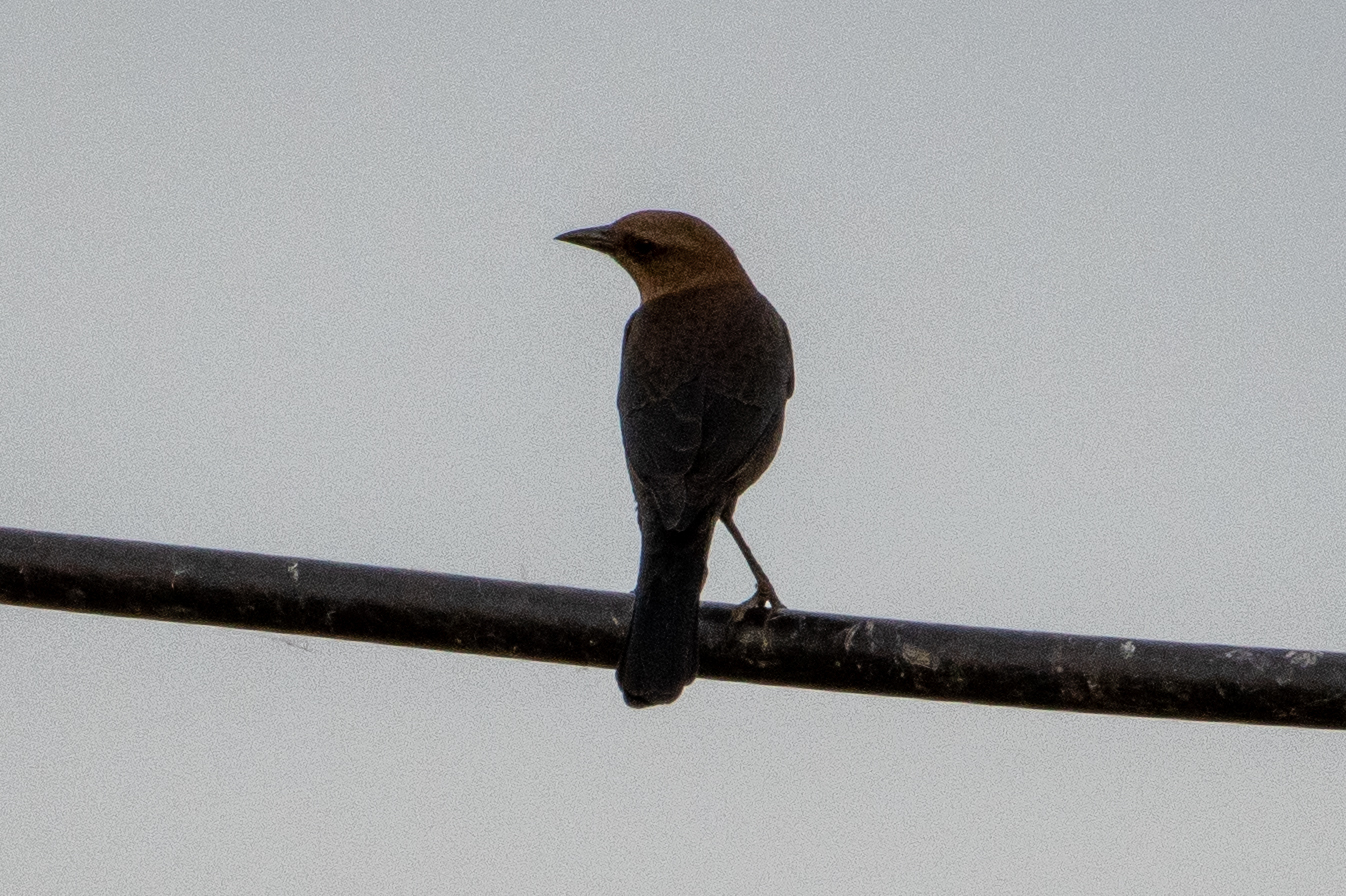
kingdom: Animalia
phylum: Chordata
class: Aves
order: Passeriformes
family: Icteridae
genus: Quiscalus
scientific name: Quiscalus mexicanus
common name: Great-tailed grackle
